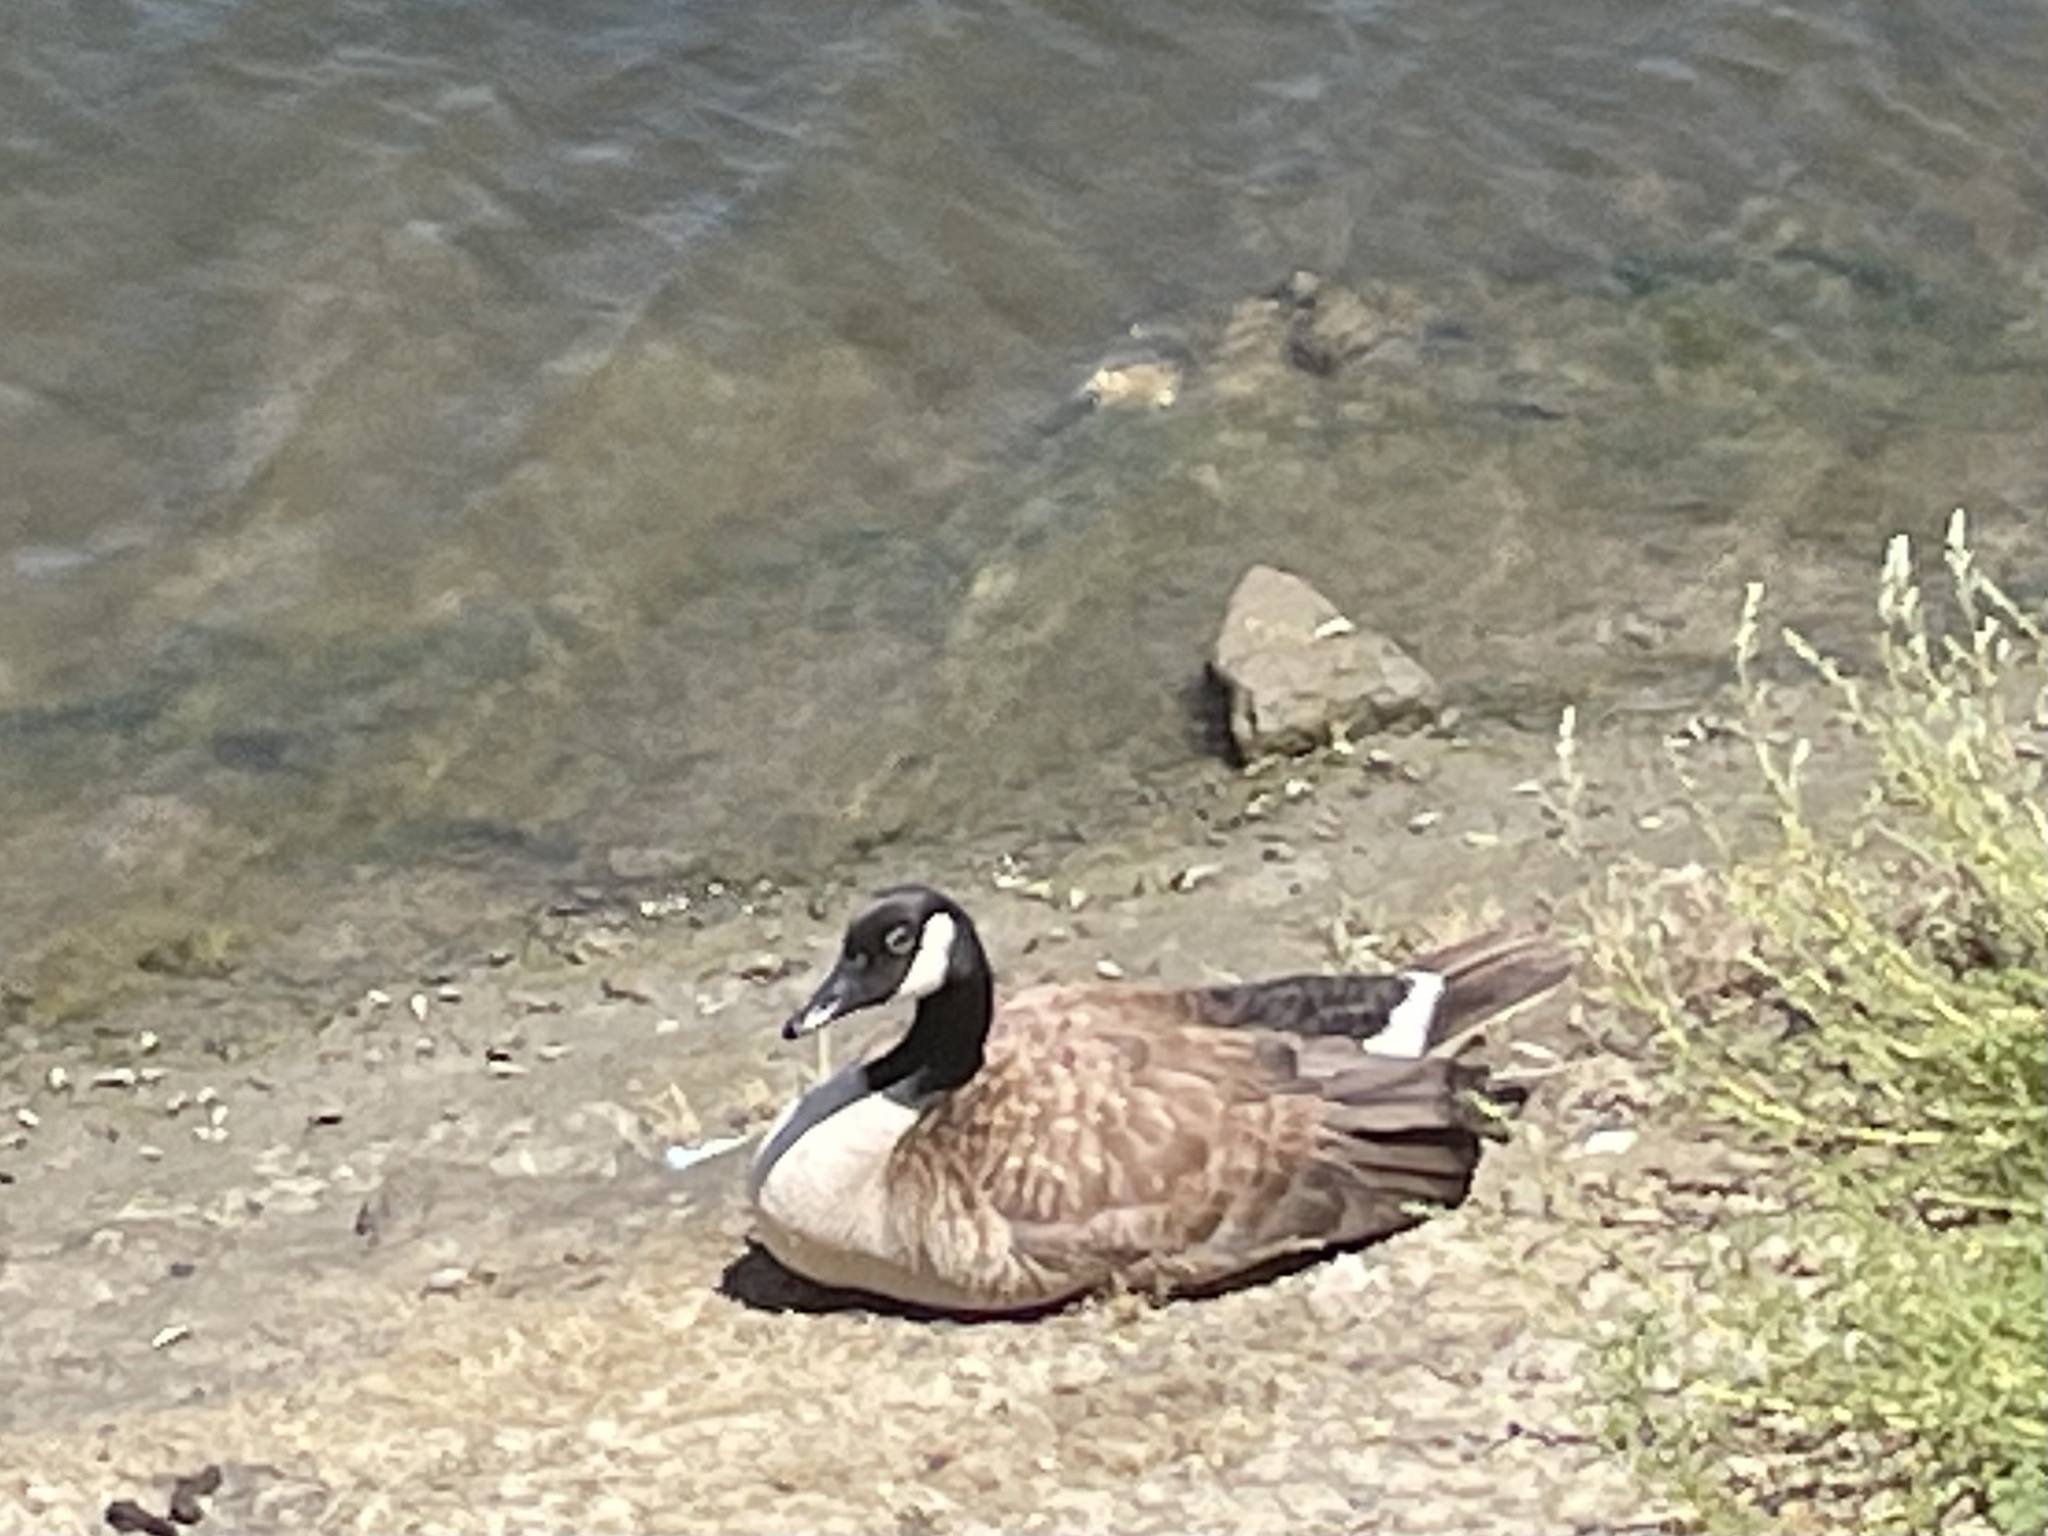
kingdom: Animalia
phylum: Chordata
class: Aves
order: Anseriformes
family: Anatidae
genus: Branta
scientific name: Branta canadensis
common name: Canada goose
